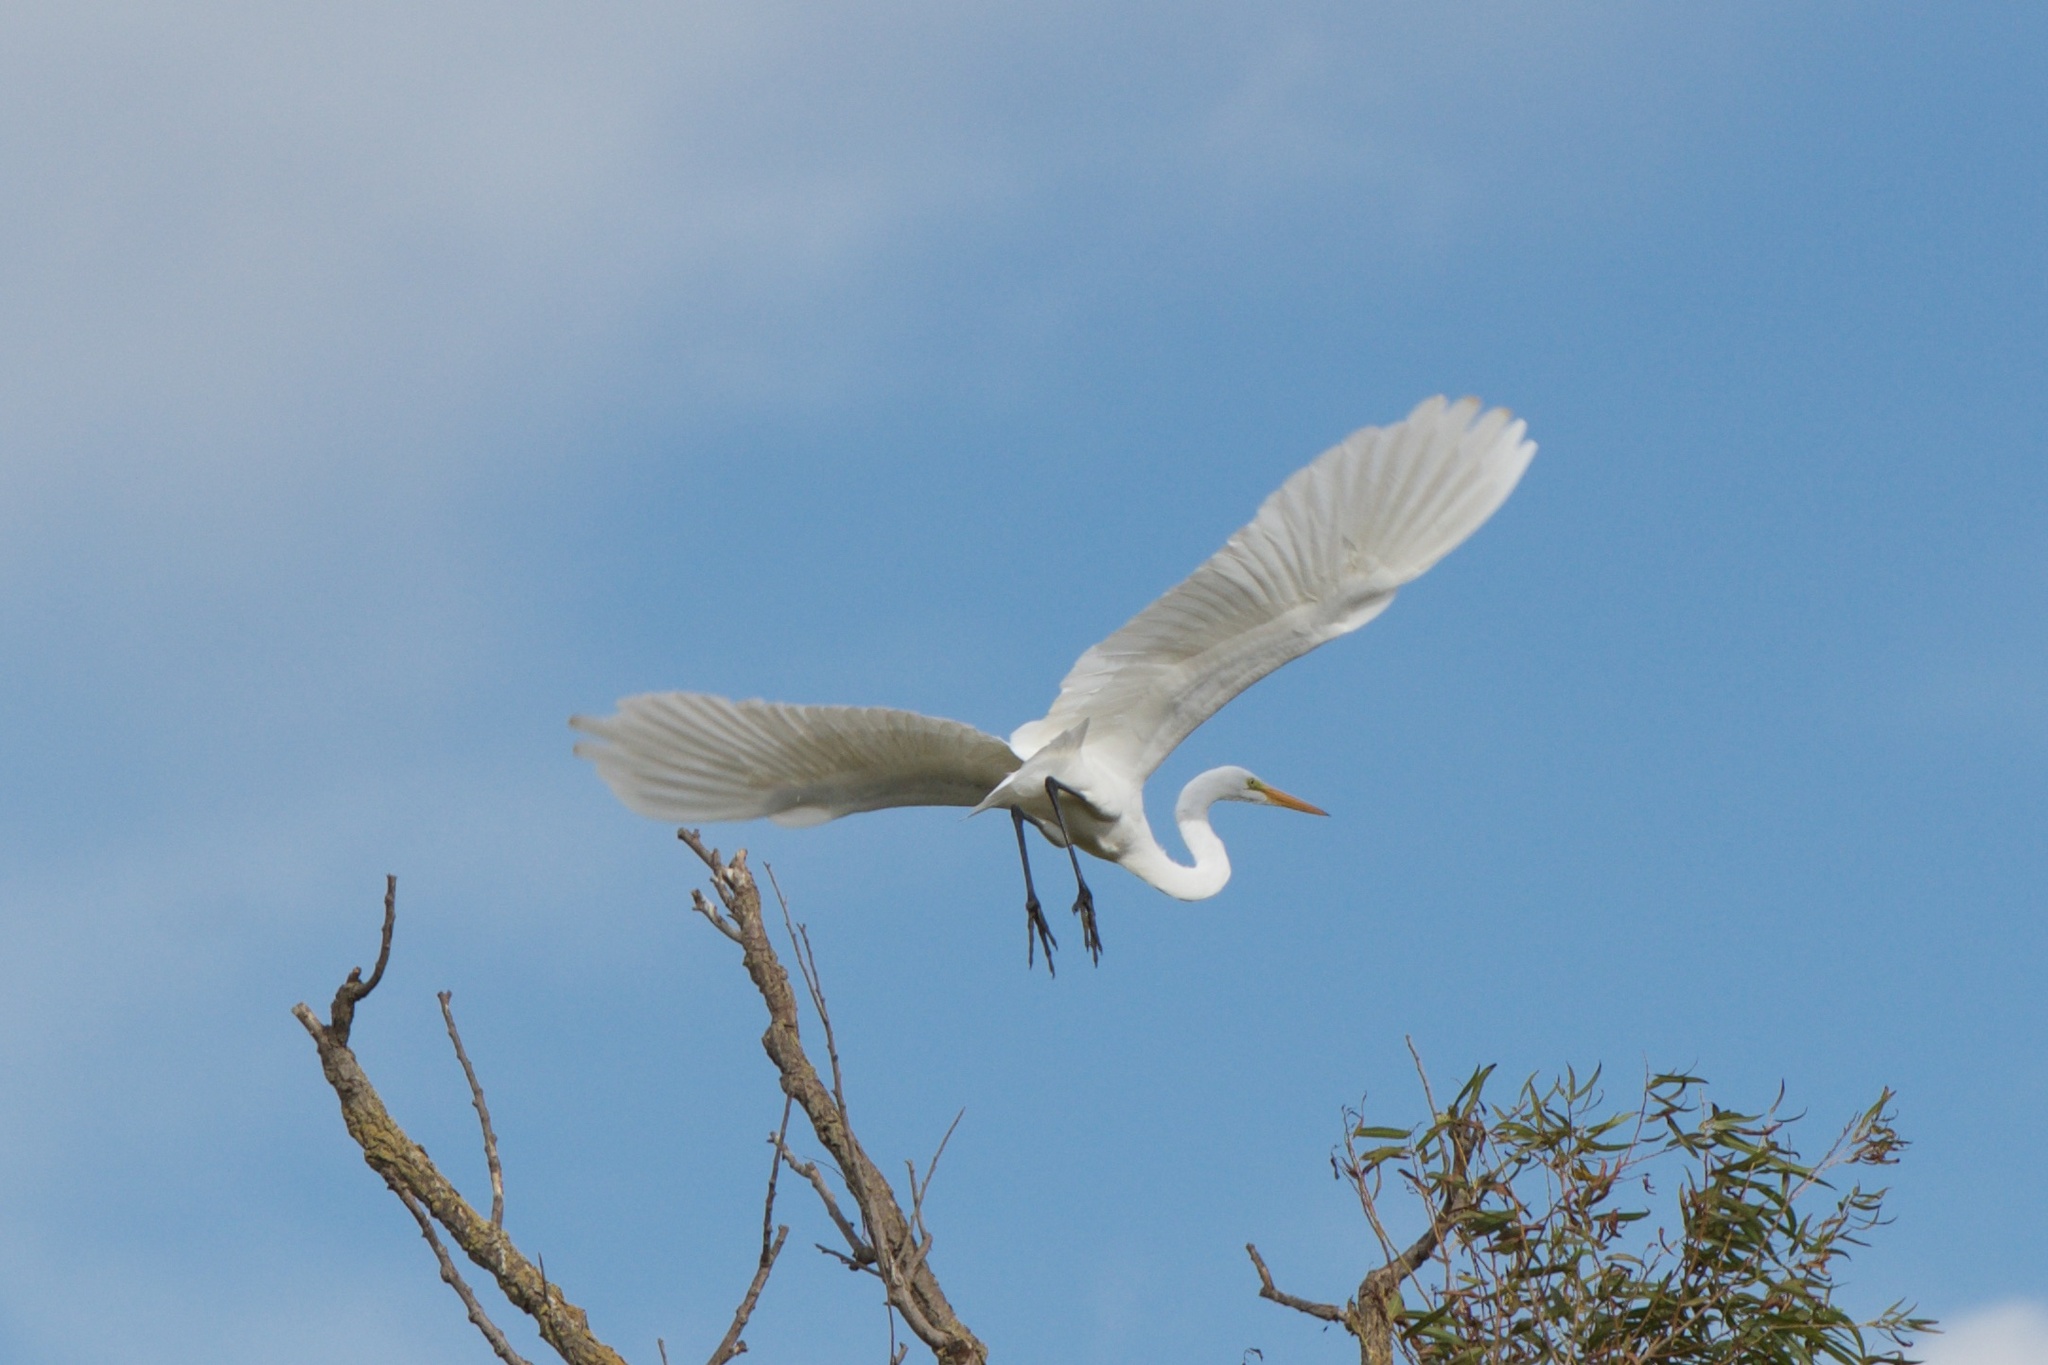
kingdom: Animalia
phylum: Chordata
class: Aves
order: Pelecaniformes
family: Ardeidae
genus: Ardea
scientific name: Ardea alba
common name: Great egret
